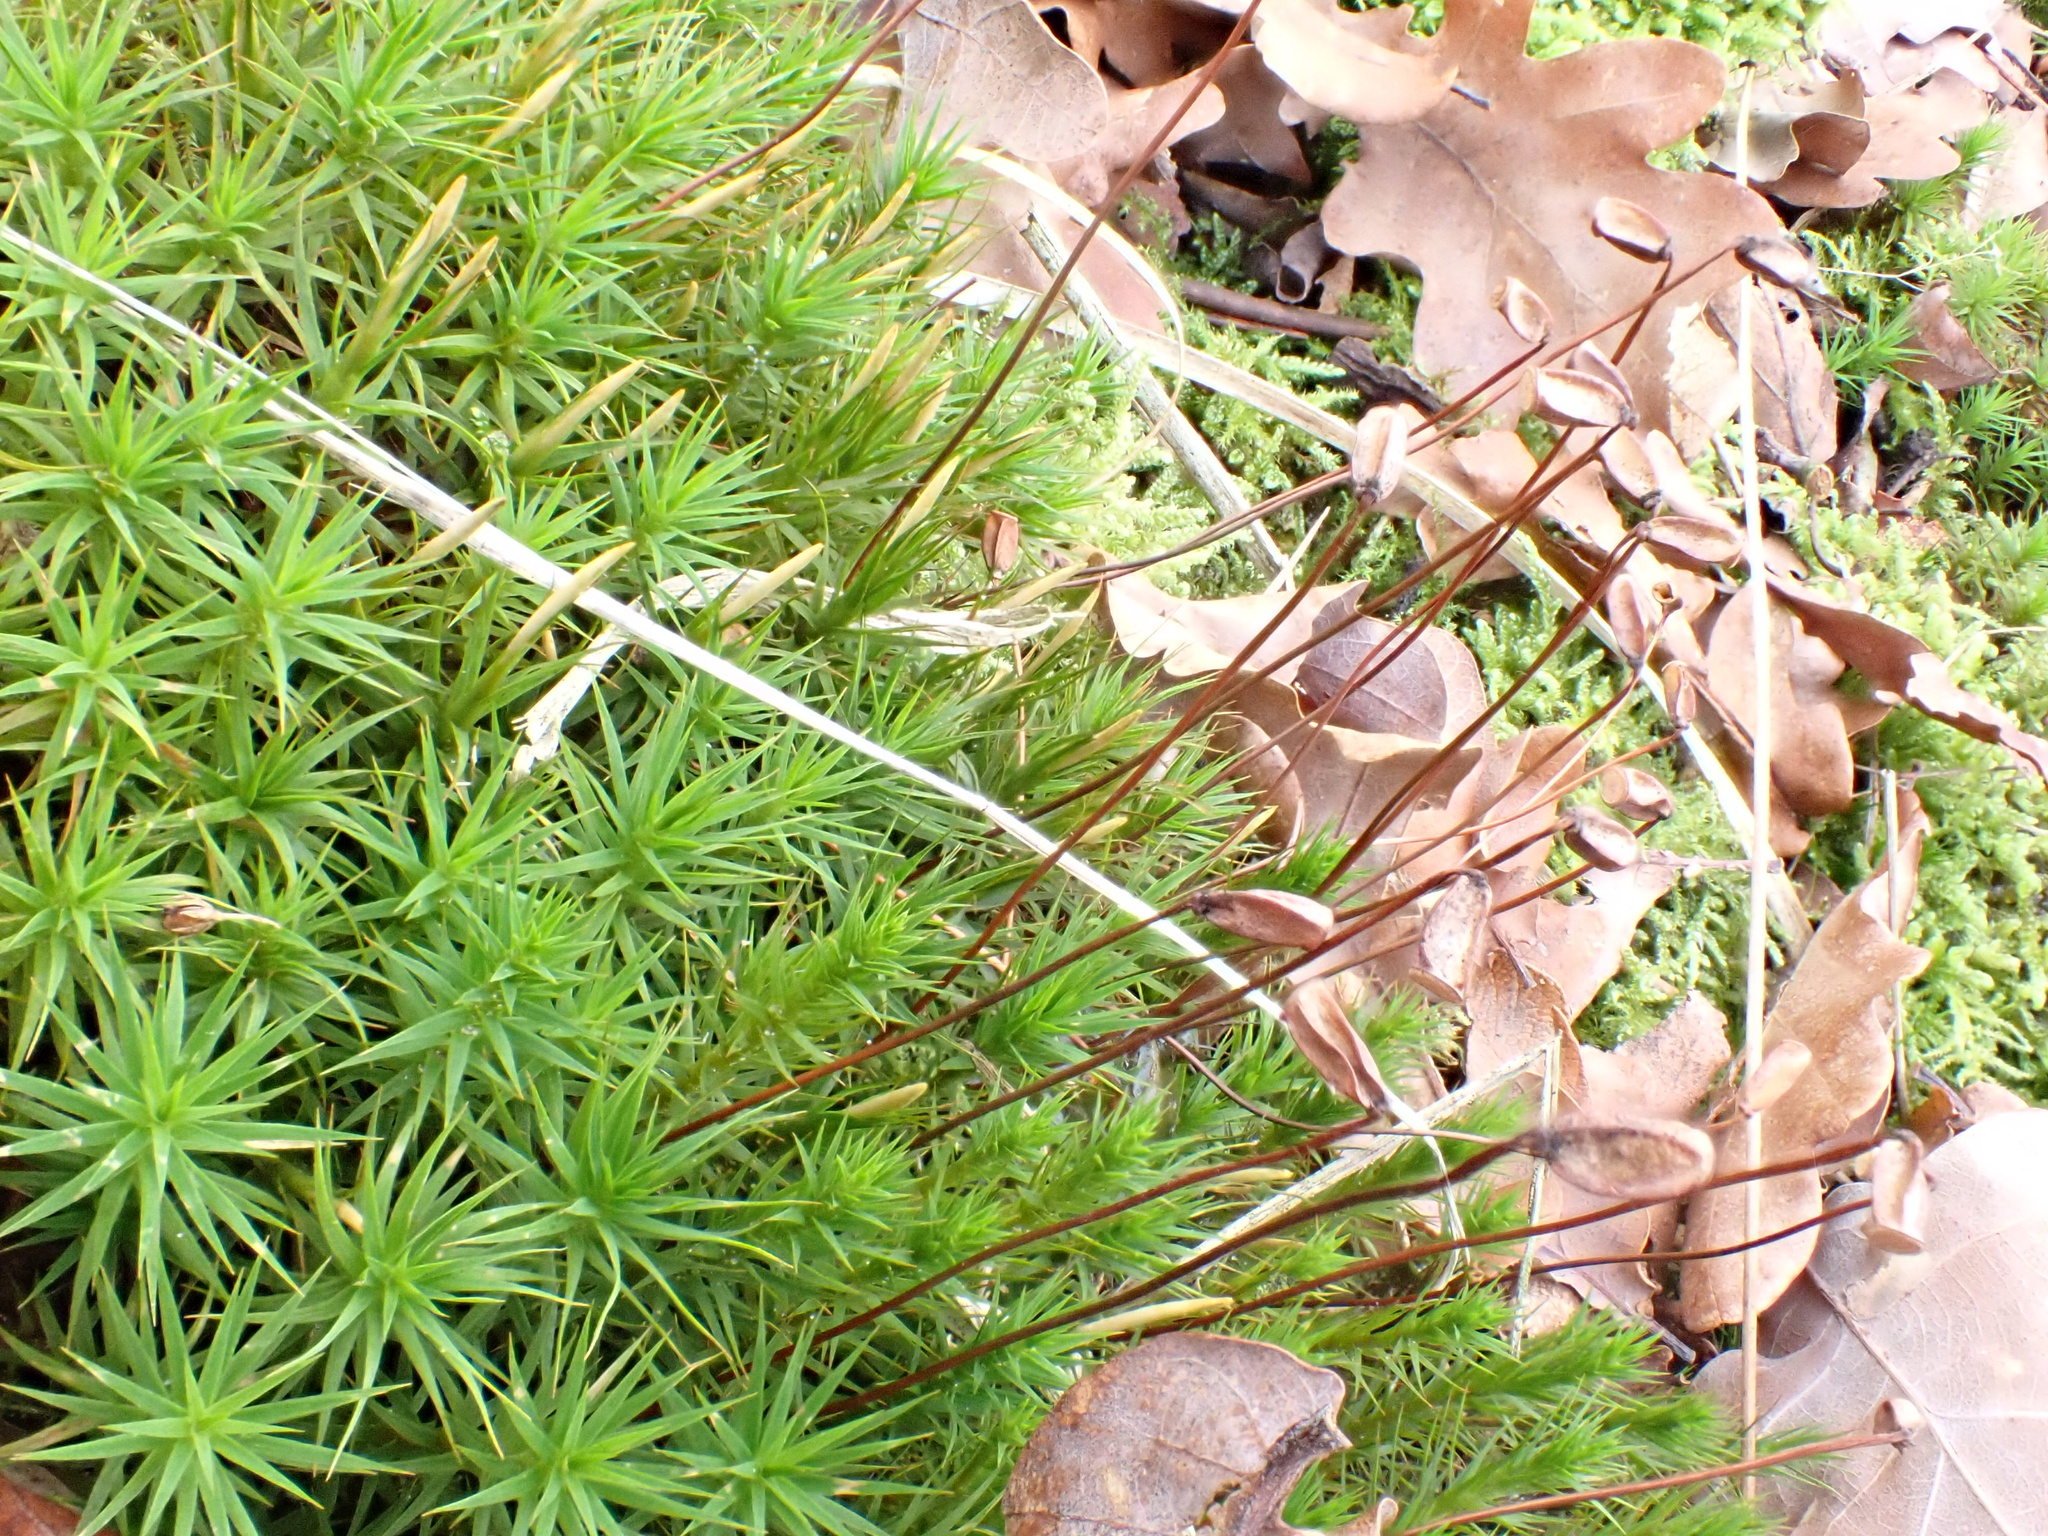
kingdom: Plantae
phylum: Bryophyta
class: Polytrichopsida
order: Polytrichales
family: Polytrichaceae
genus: Polytrichum
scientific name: Polytrichum formosum
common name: Bank haircap moss
